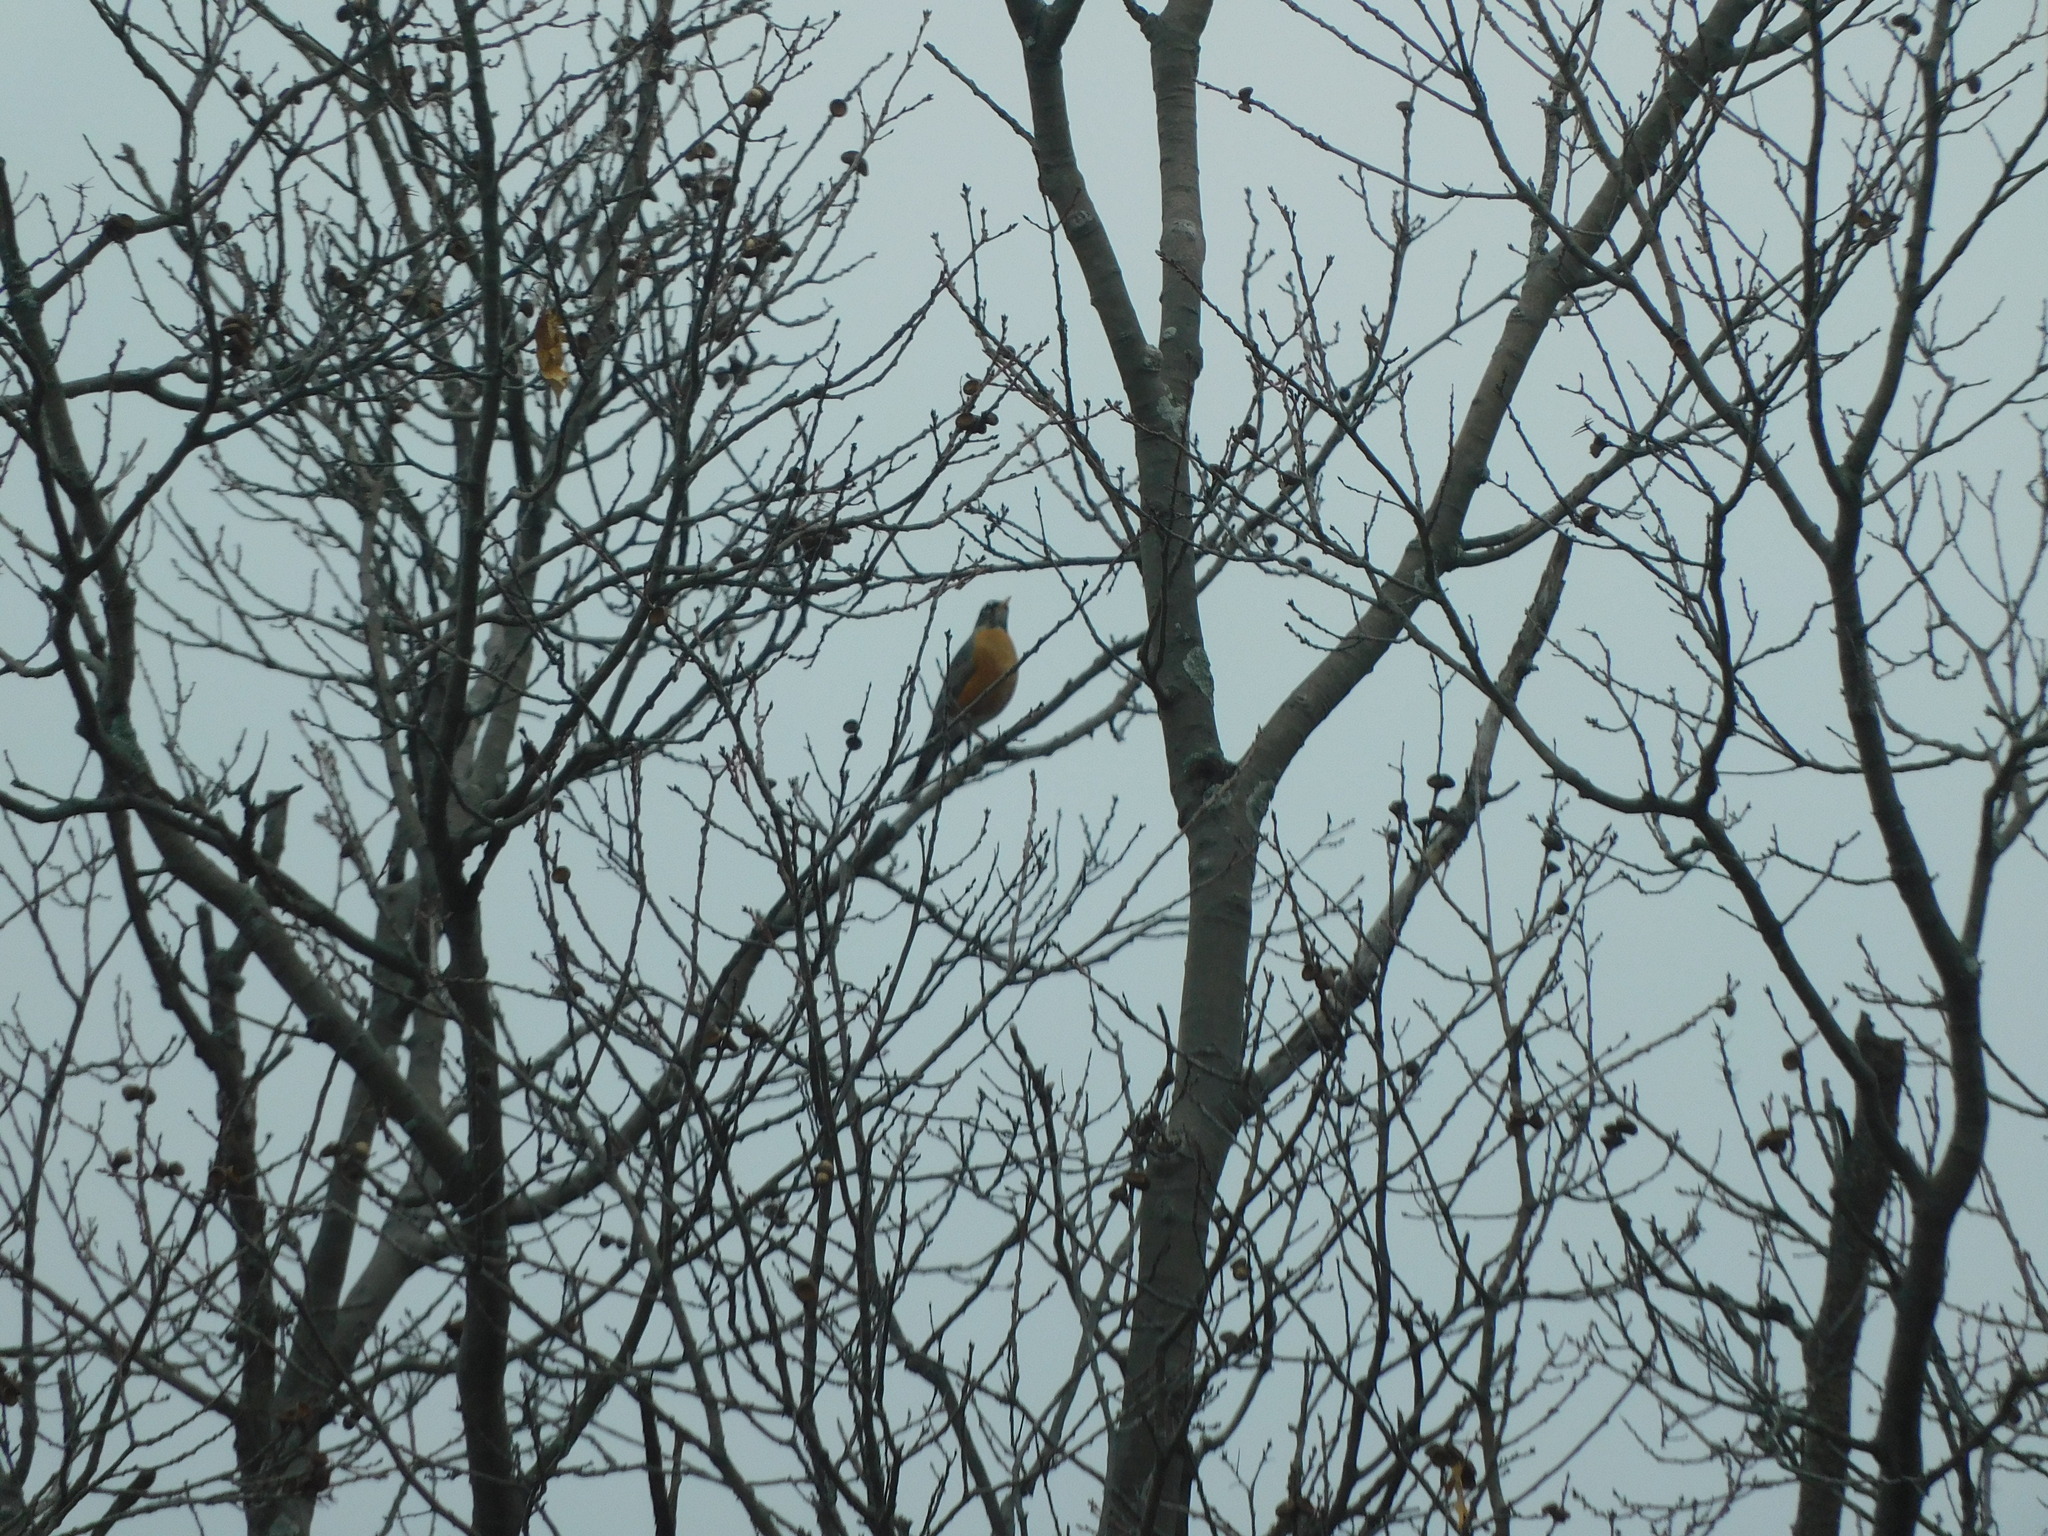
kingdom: Animalia
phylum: Chordata
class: Aves
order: Passeriformes
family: Turdidae
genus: Turdus
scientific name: Turdus migratorius
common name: American robin
